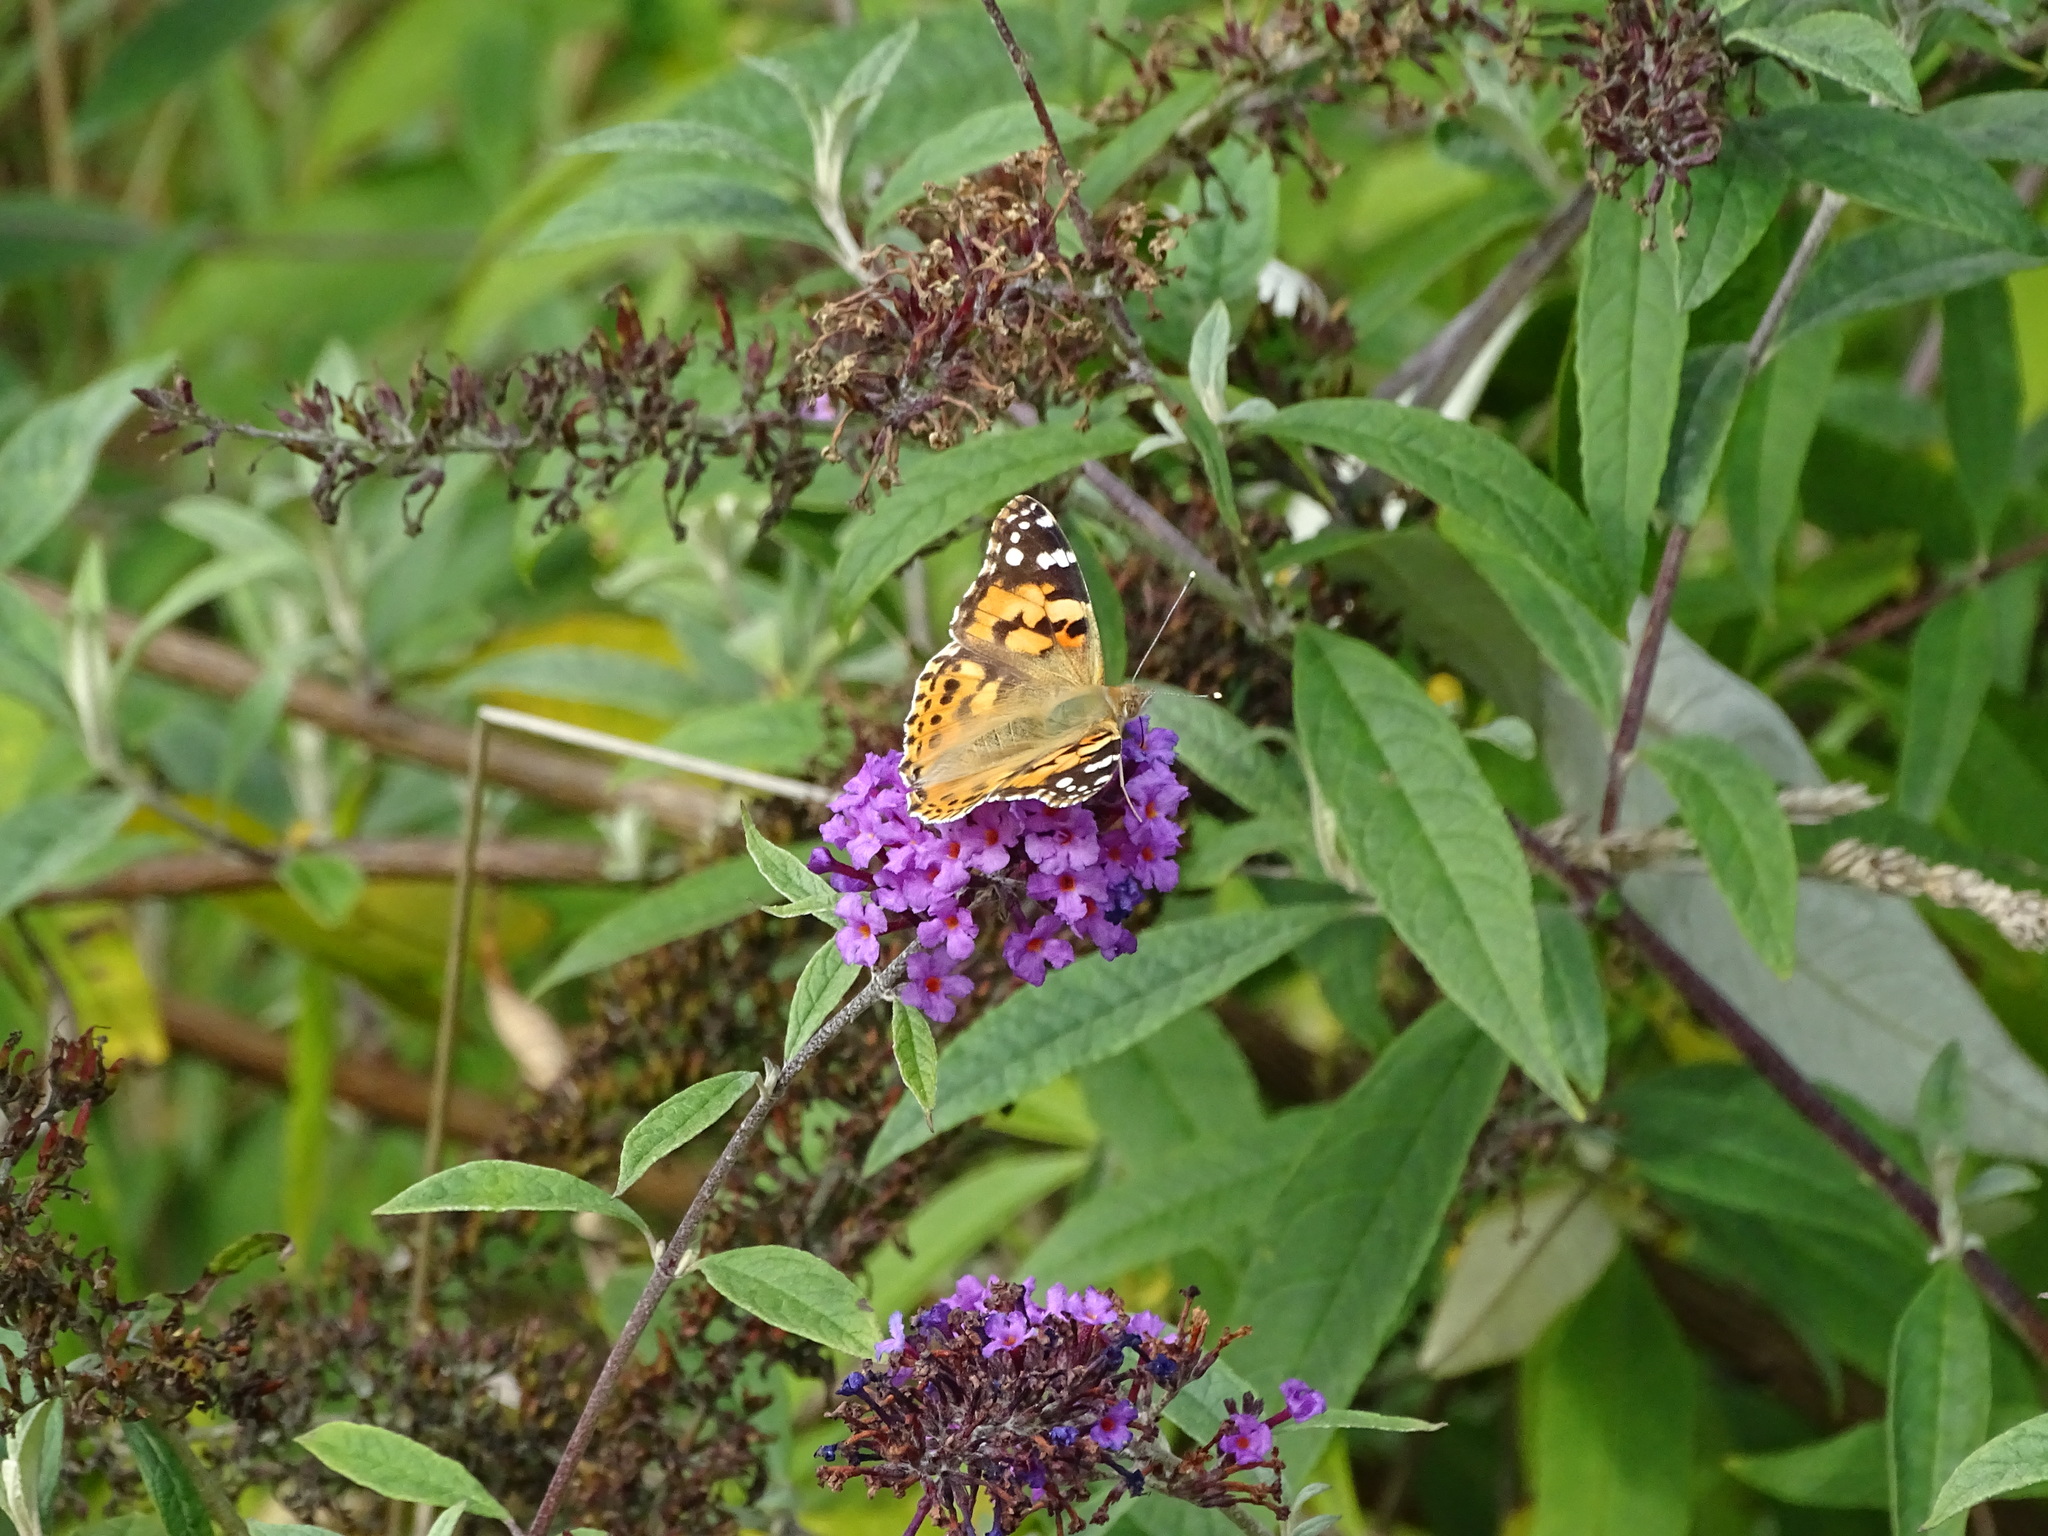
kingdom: Animalia
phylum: Arthropoda
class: Insecta
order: Lepidoptera
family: Nymphalidae
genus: Vanessa
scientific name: Vanessa cardui
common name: Painted lady
